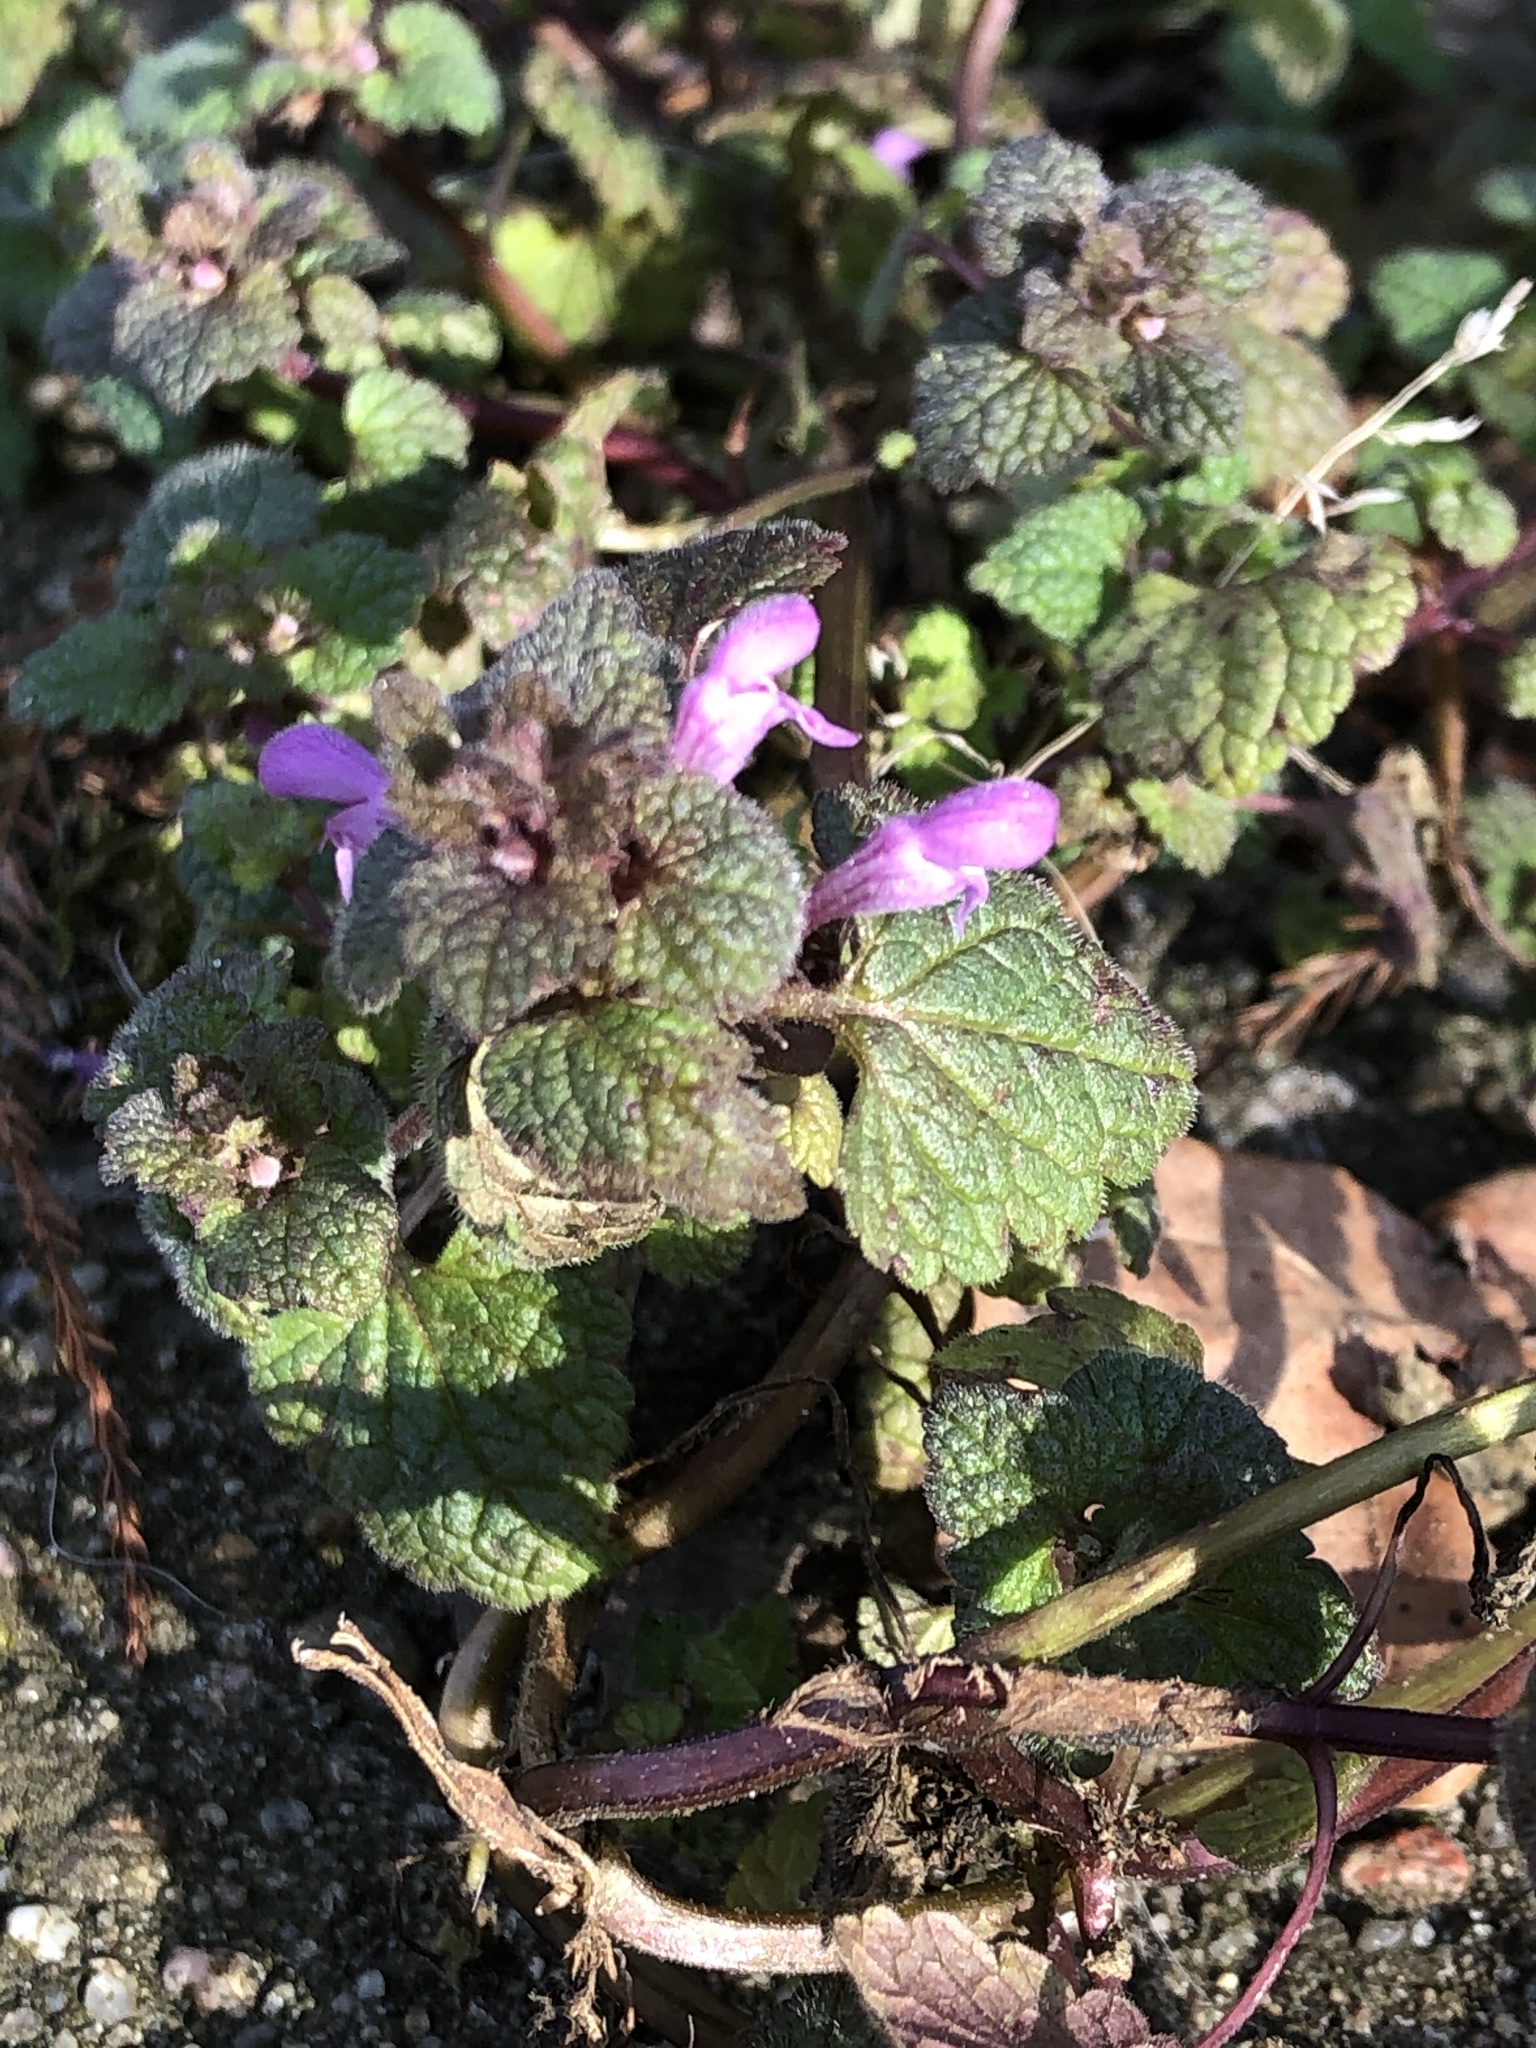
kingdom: Plantae
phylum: Tracheophyta
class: Magnoliopsida
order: Lamiales
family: Lamiaceae
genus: Lamium
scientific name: Lamium purpureum
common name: Red dead-nettle
